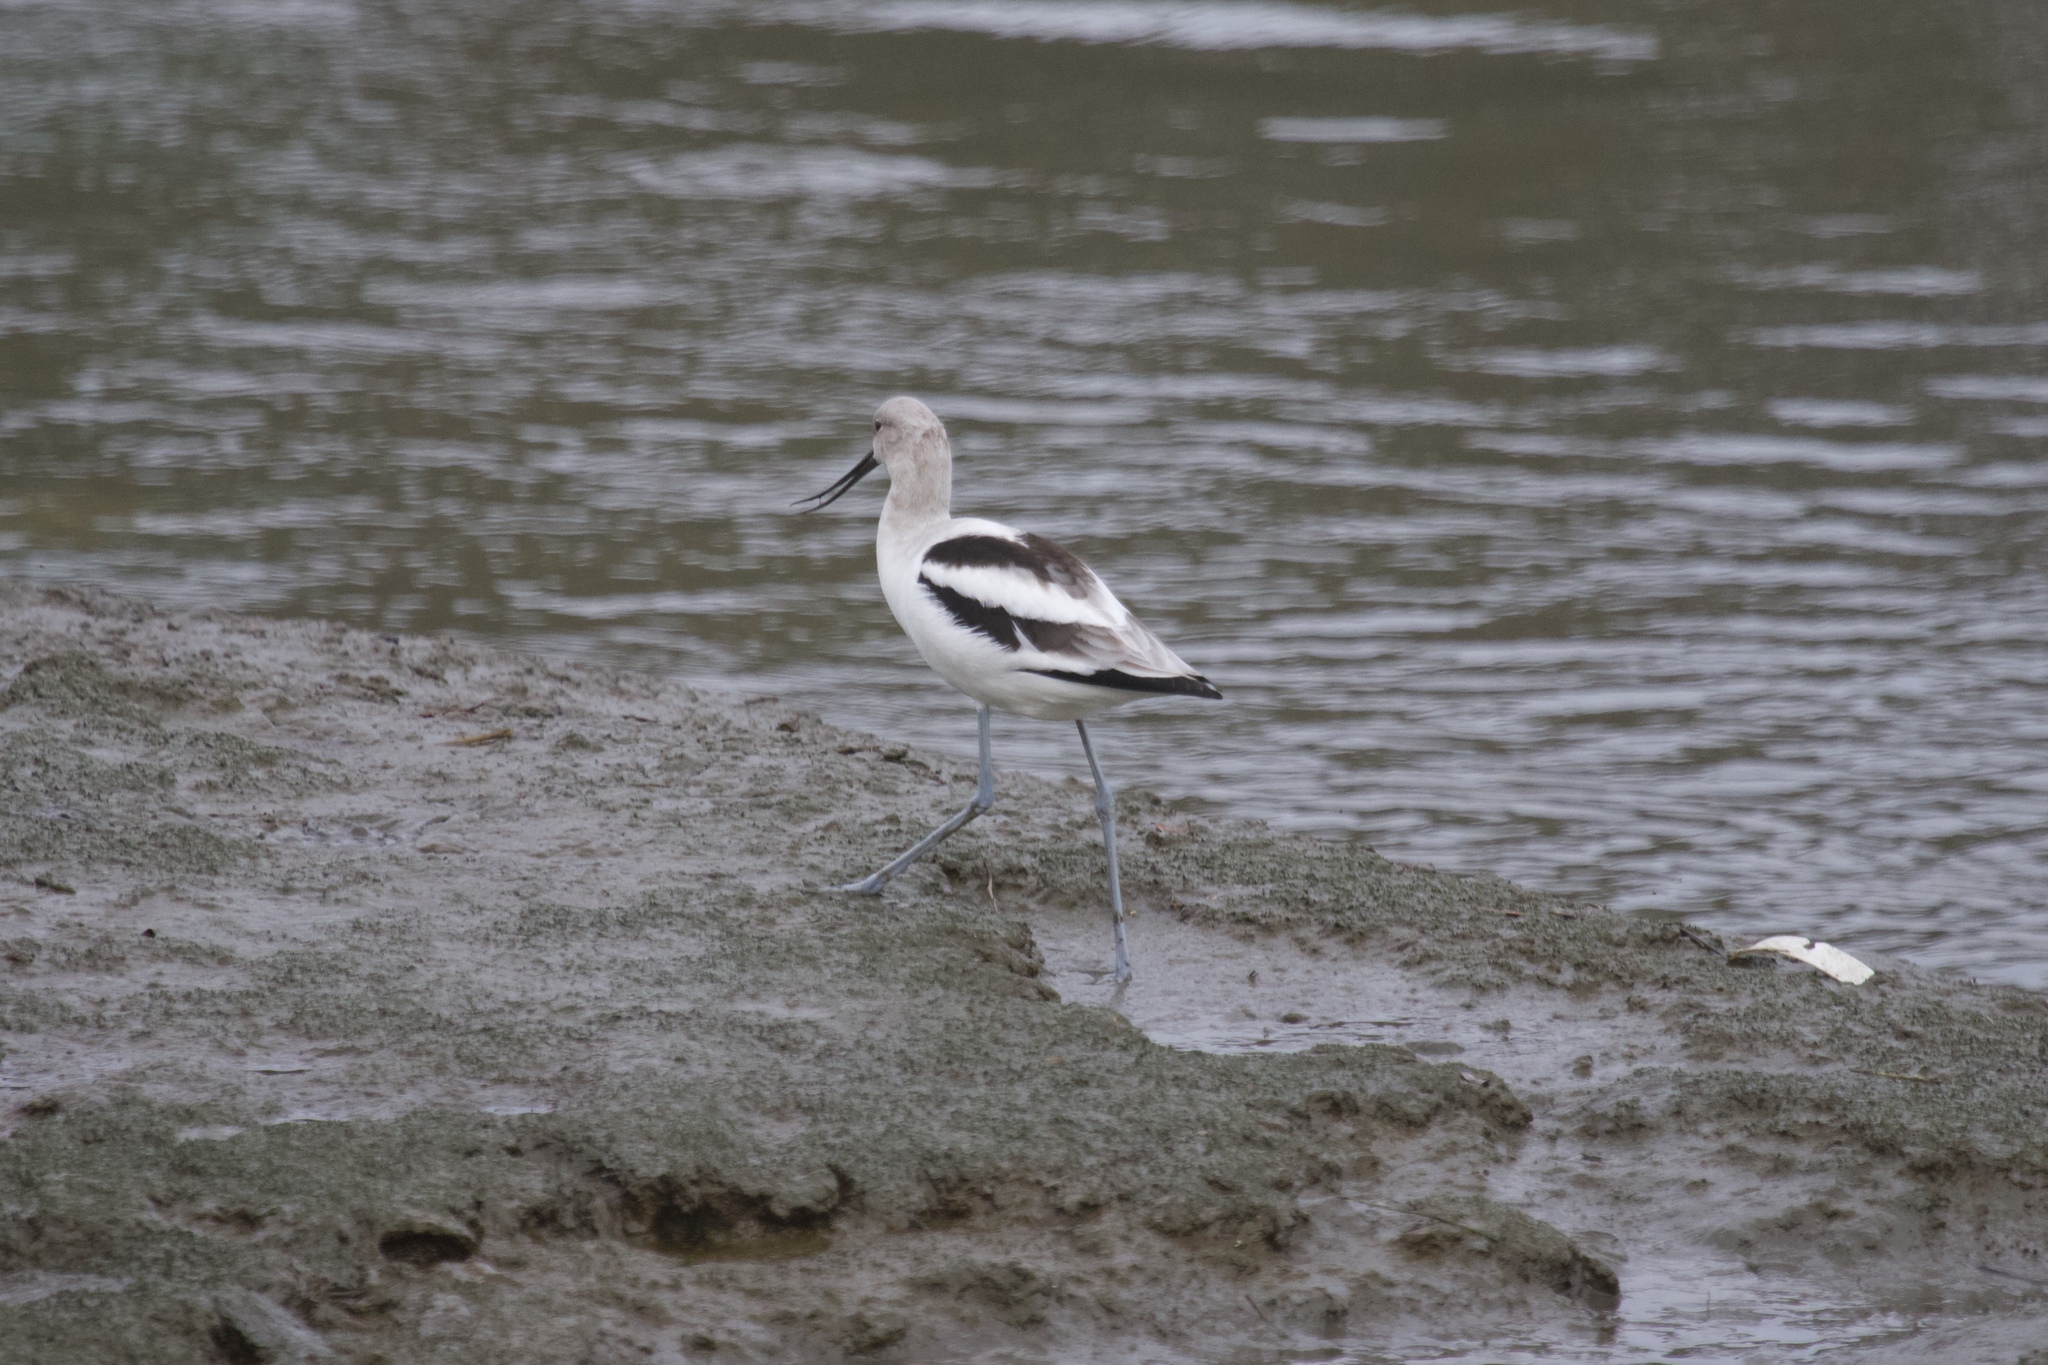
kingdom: Animalia
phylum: Chordata
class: Aves
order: Charadriiformes
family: Recurvirostridae
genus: Recurvirostra
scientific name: Recurvirostra americana
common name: American avocet
